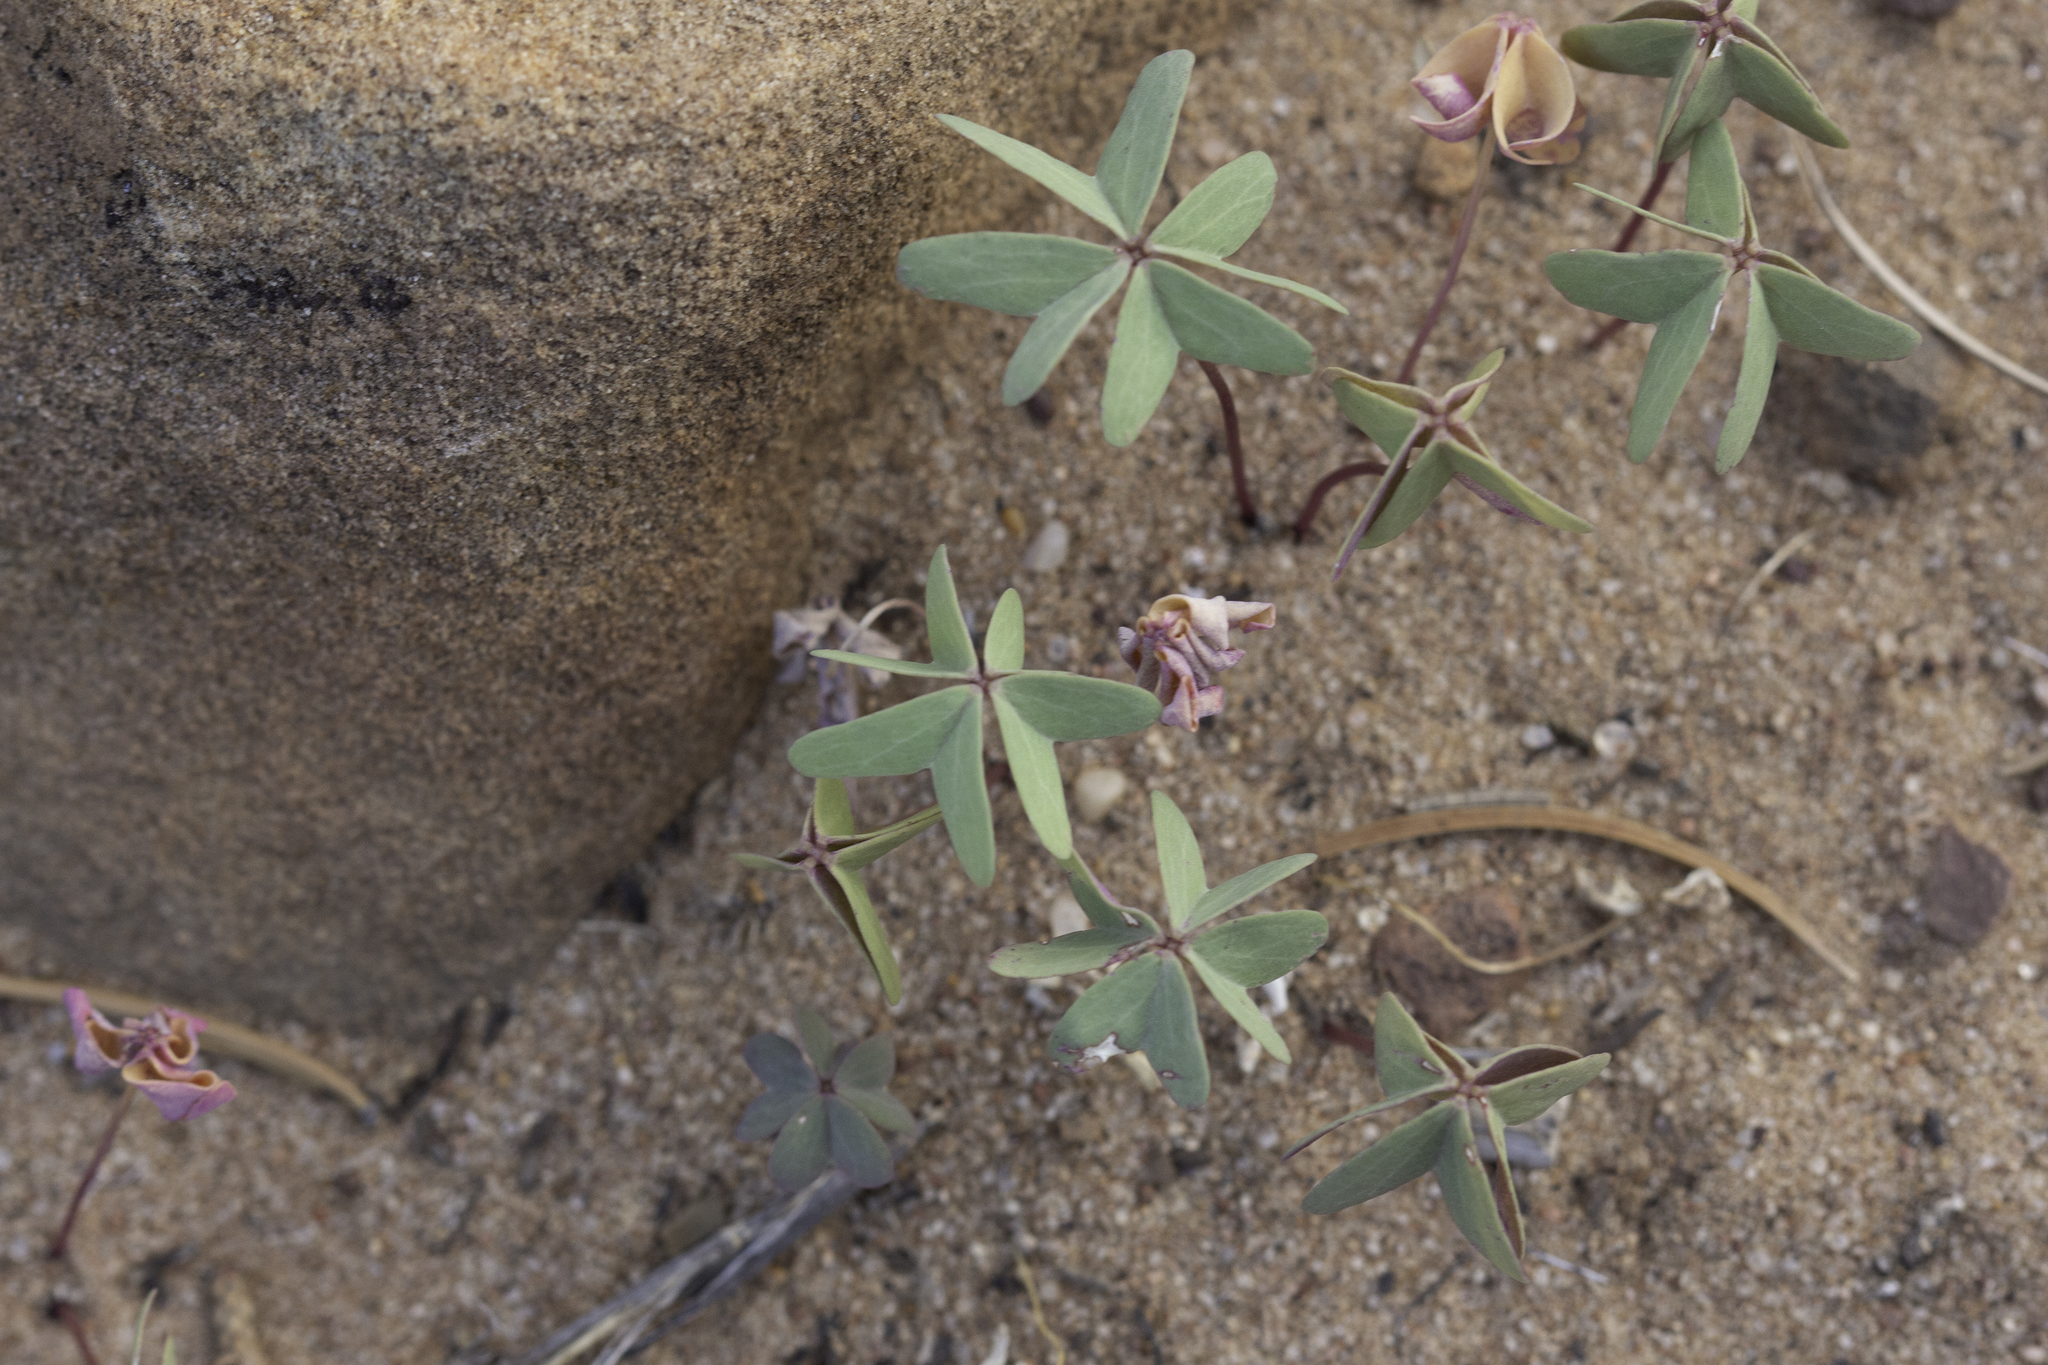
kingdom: Plantae
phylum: Tracheophyta
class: Magnoliopsida
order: Oxalidales
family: Oxalidaceae
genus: Oxalis
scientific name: Oxalis caerulea
